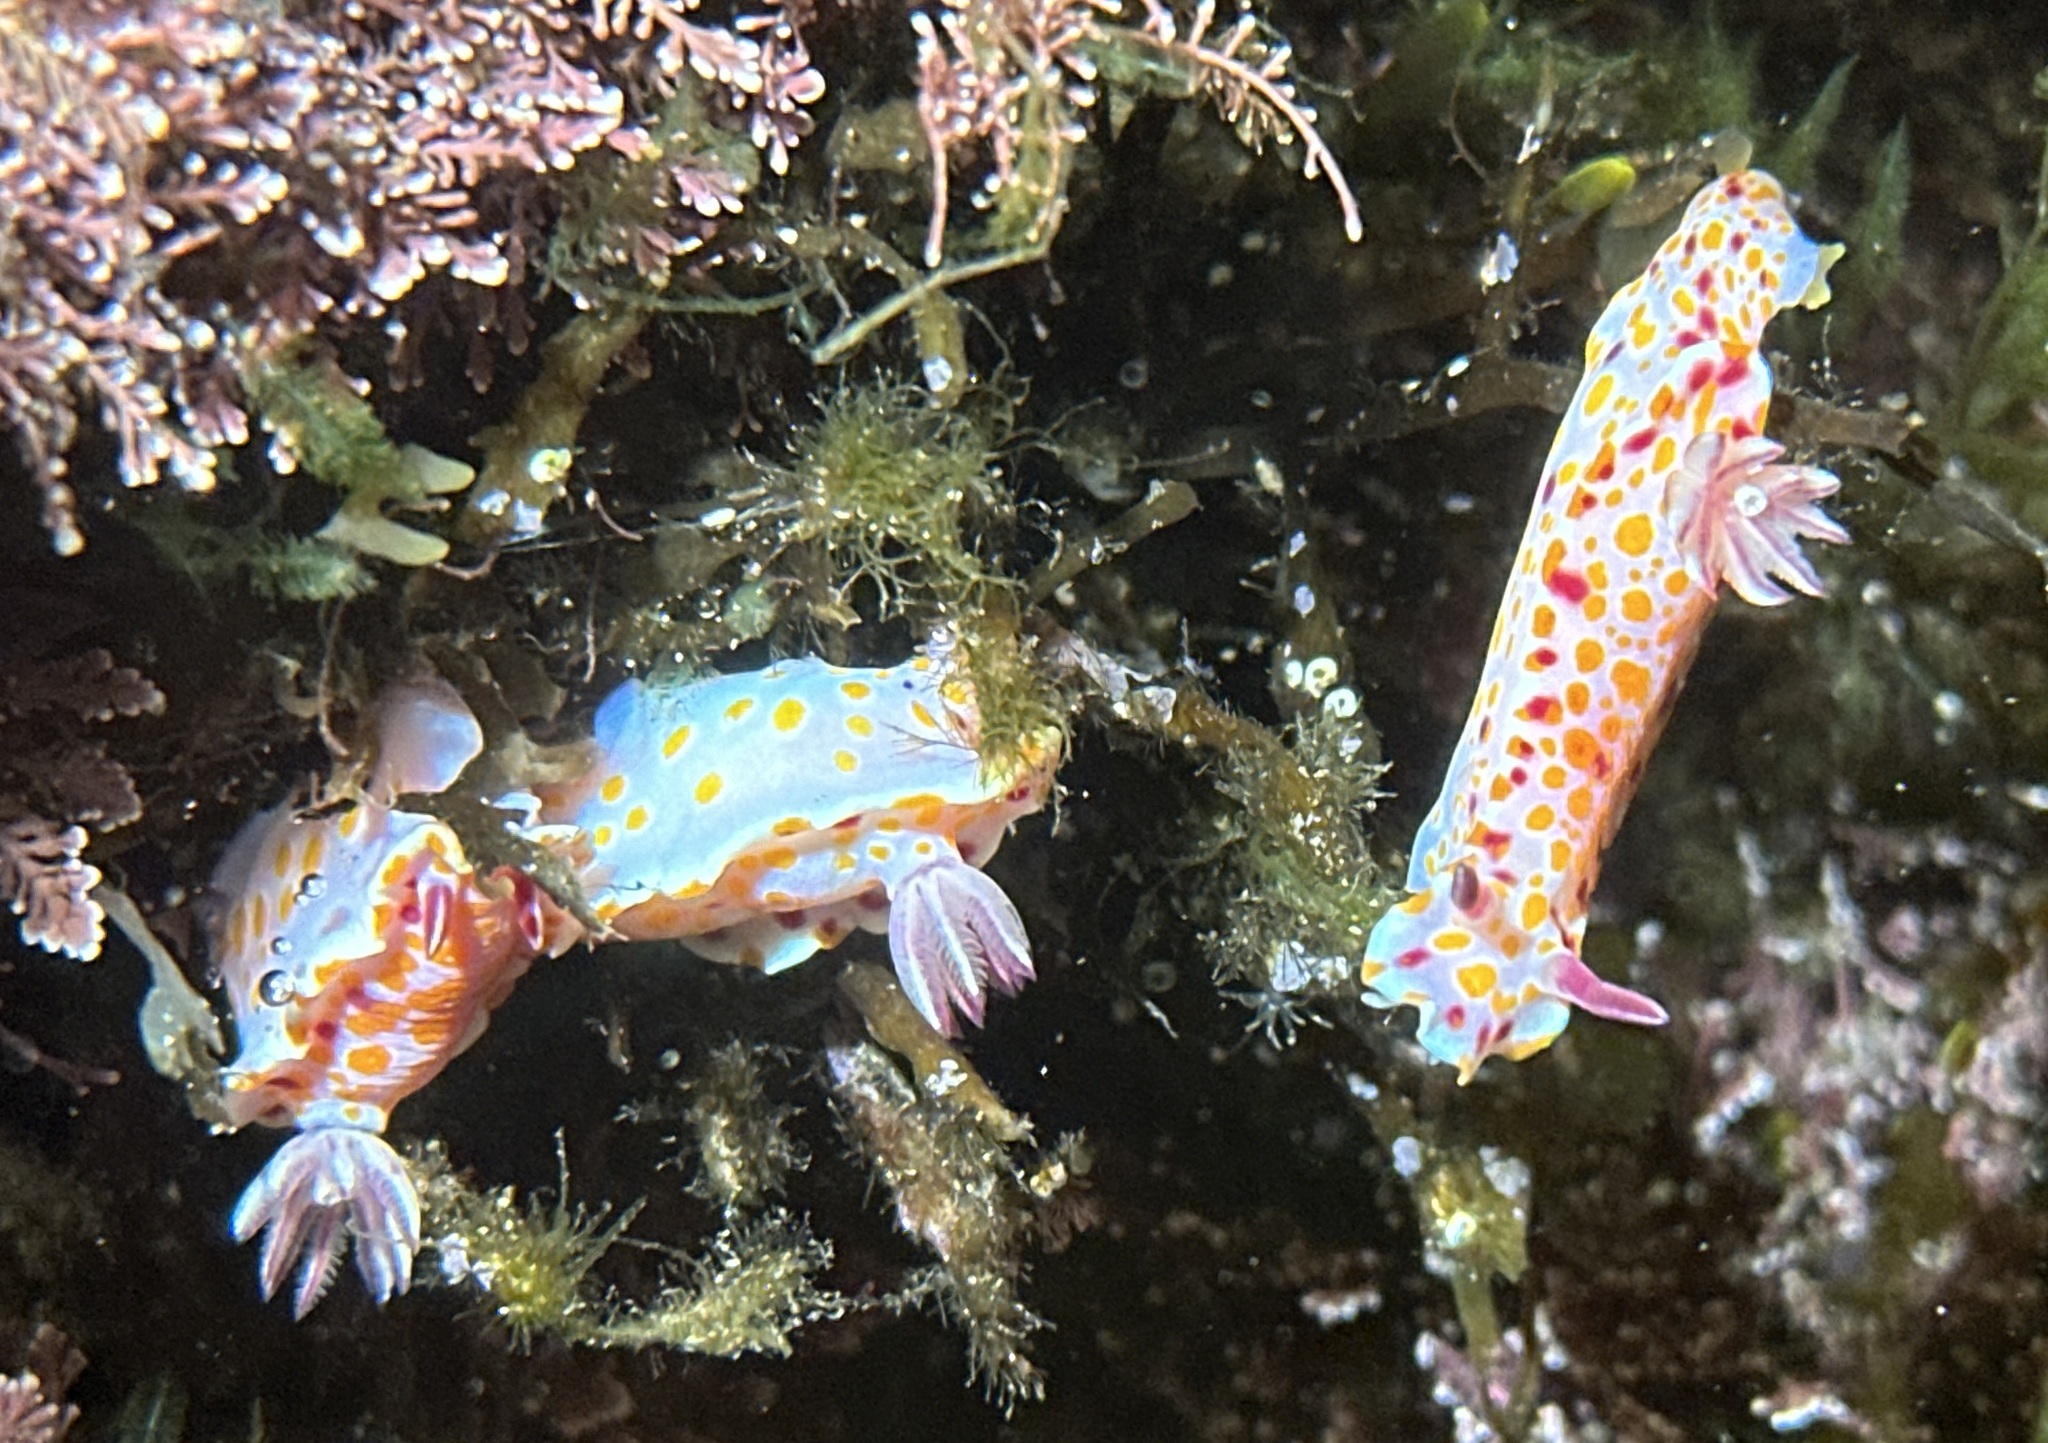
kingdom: Animalia
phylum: Mollusca
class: Gastropoda
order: Nudibranchia
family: Chromodorididae
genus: Ceratosoma
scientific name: Ceratosoma amoenum
